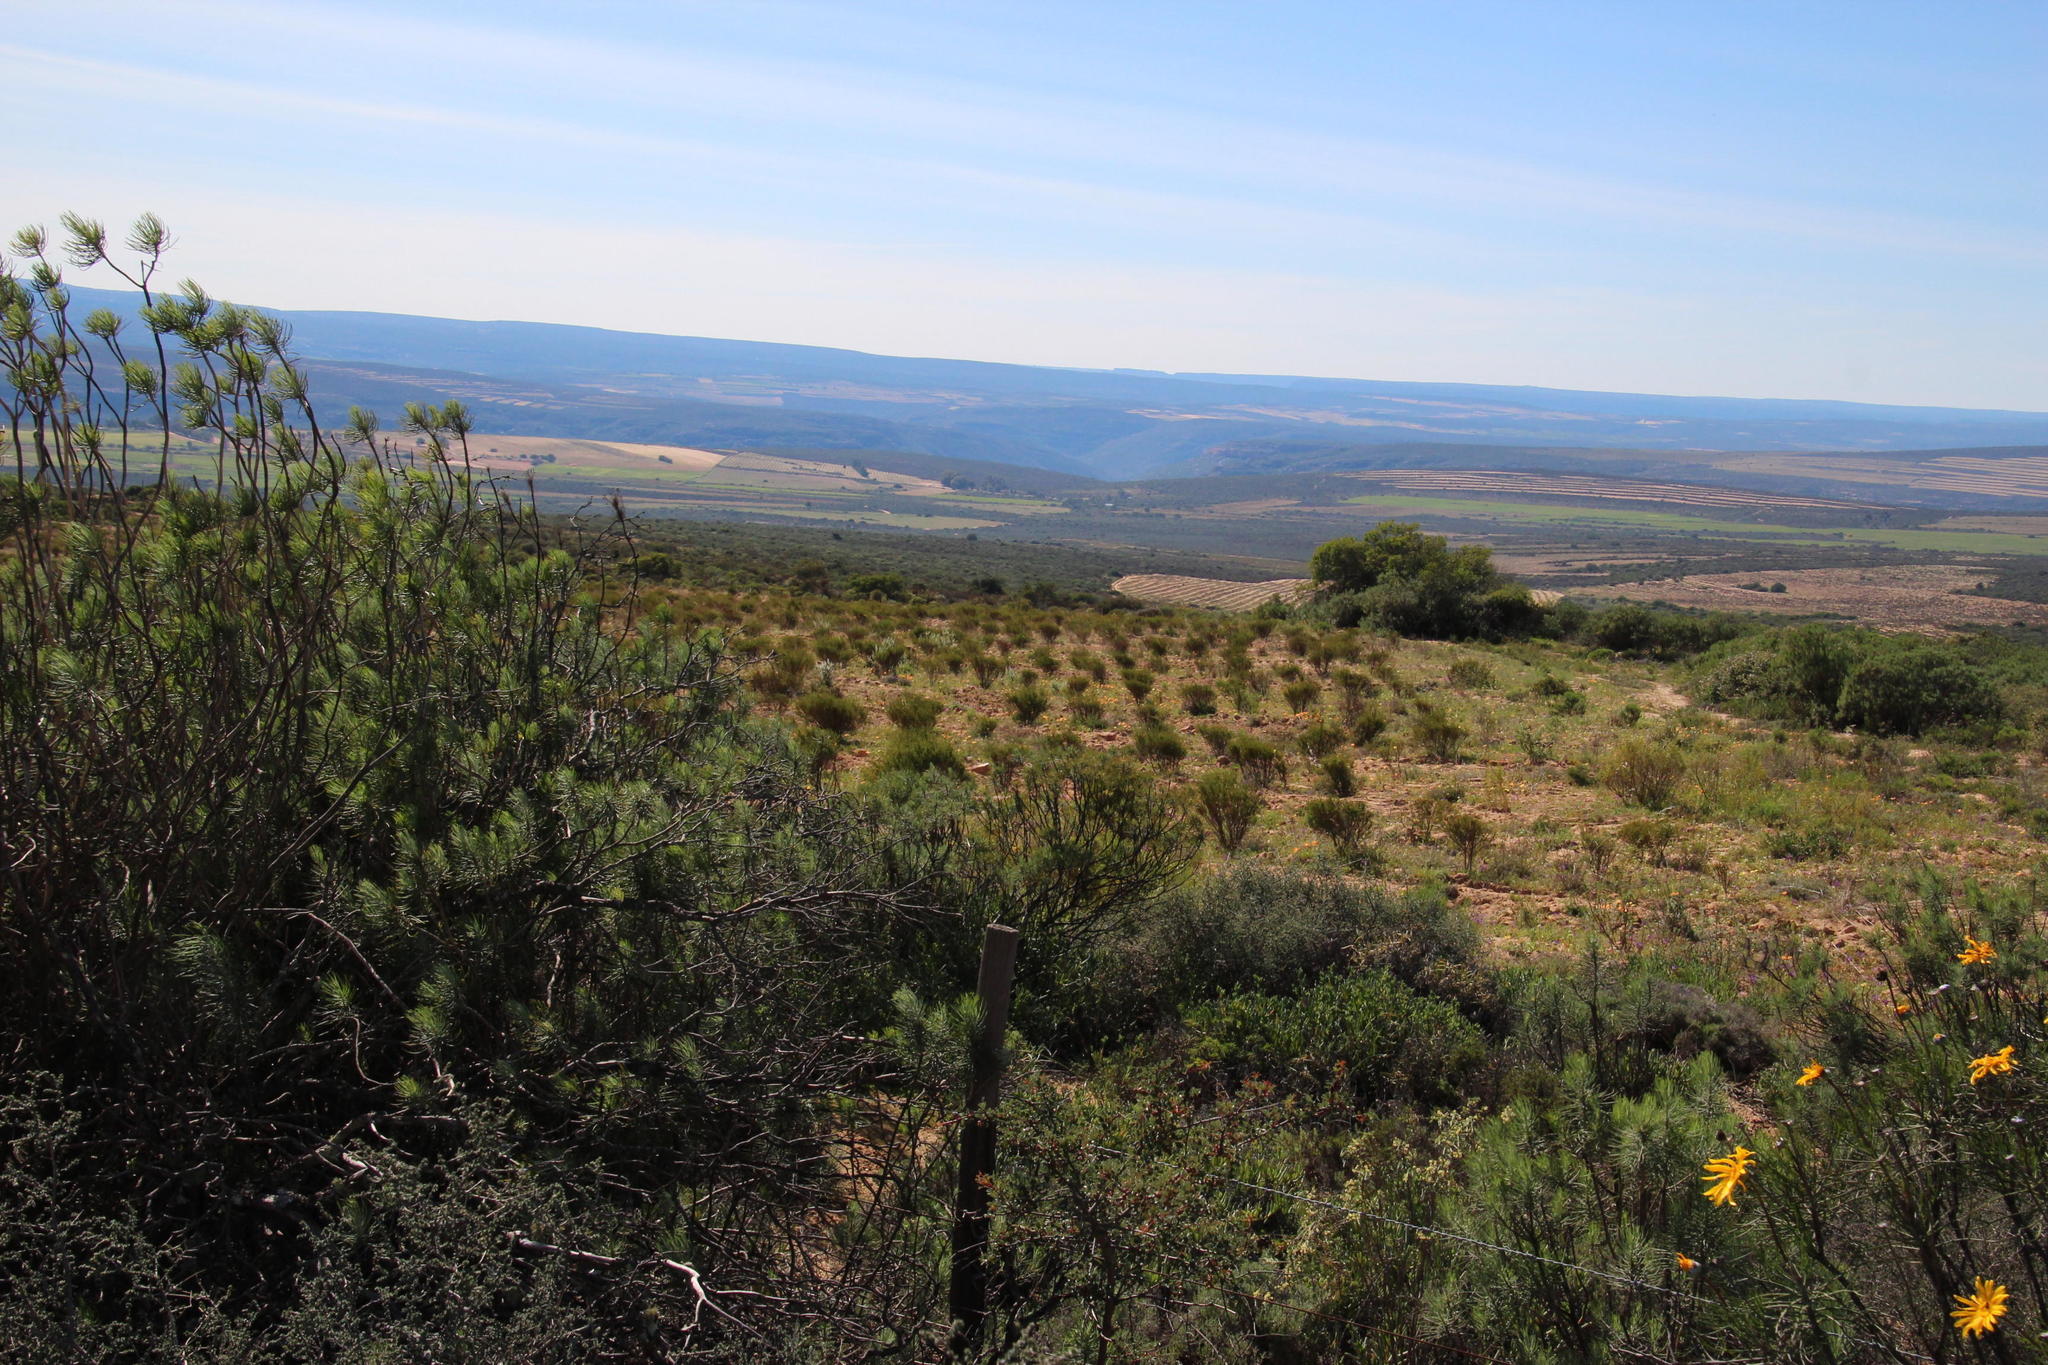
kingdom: Plantae
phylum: Tracheophyta
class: Magnoliopsida
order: Fabales
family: Fabaceae
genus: Aspalathus
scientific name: Aspalathus linearis
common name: Rooibos-tea
